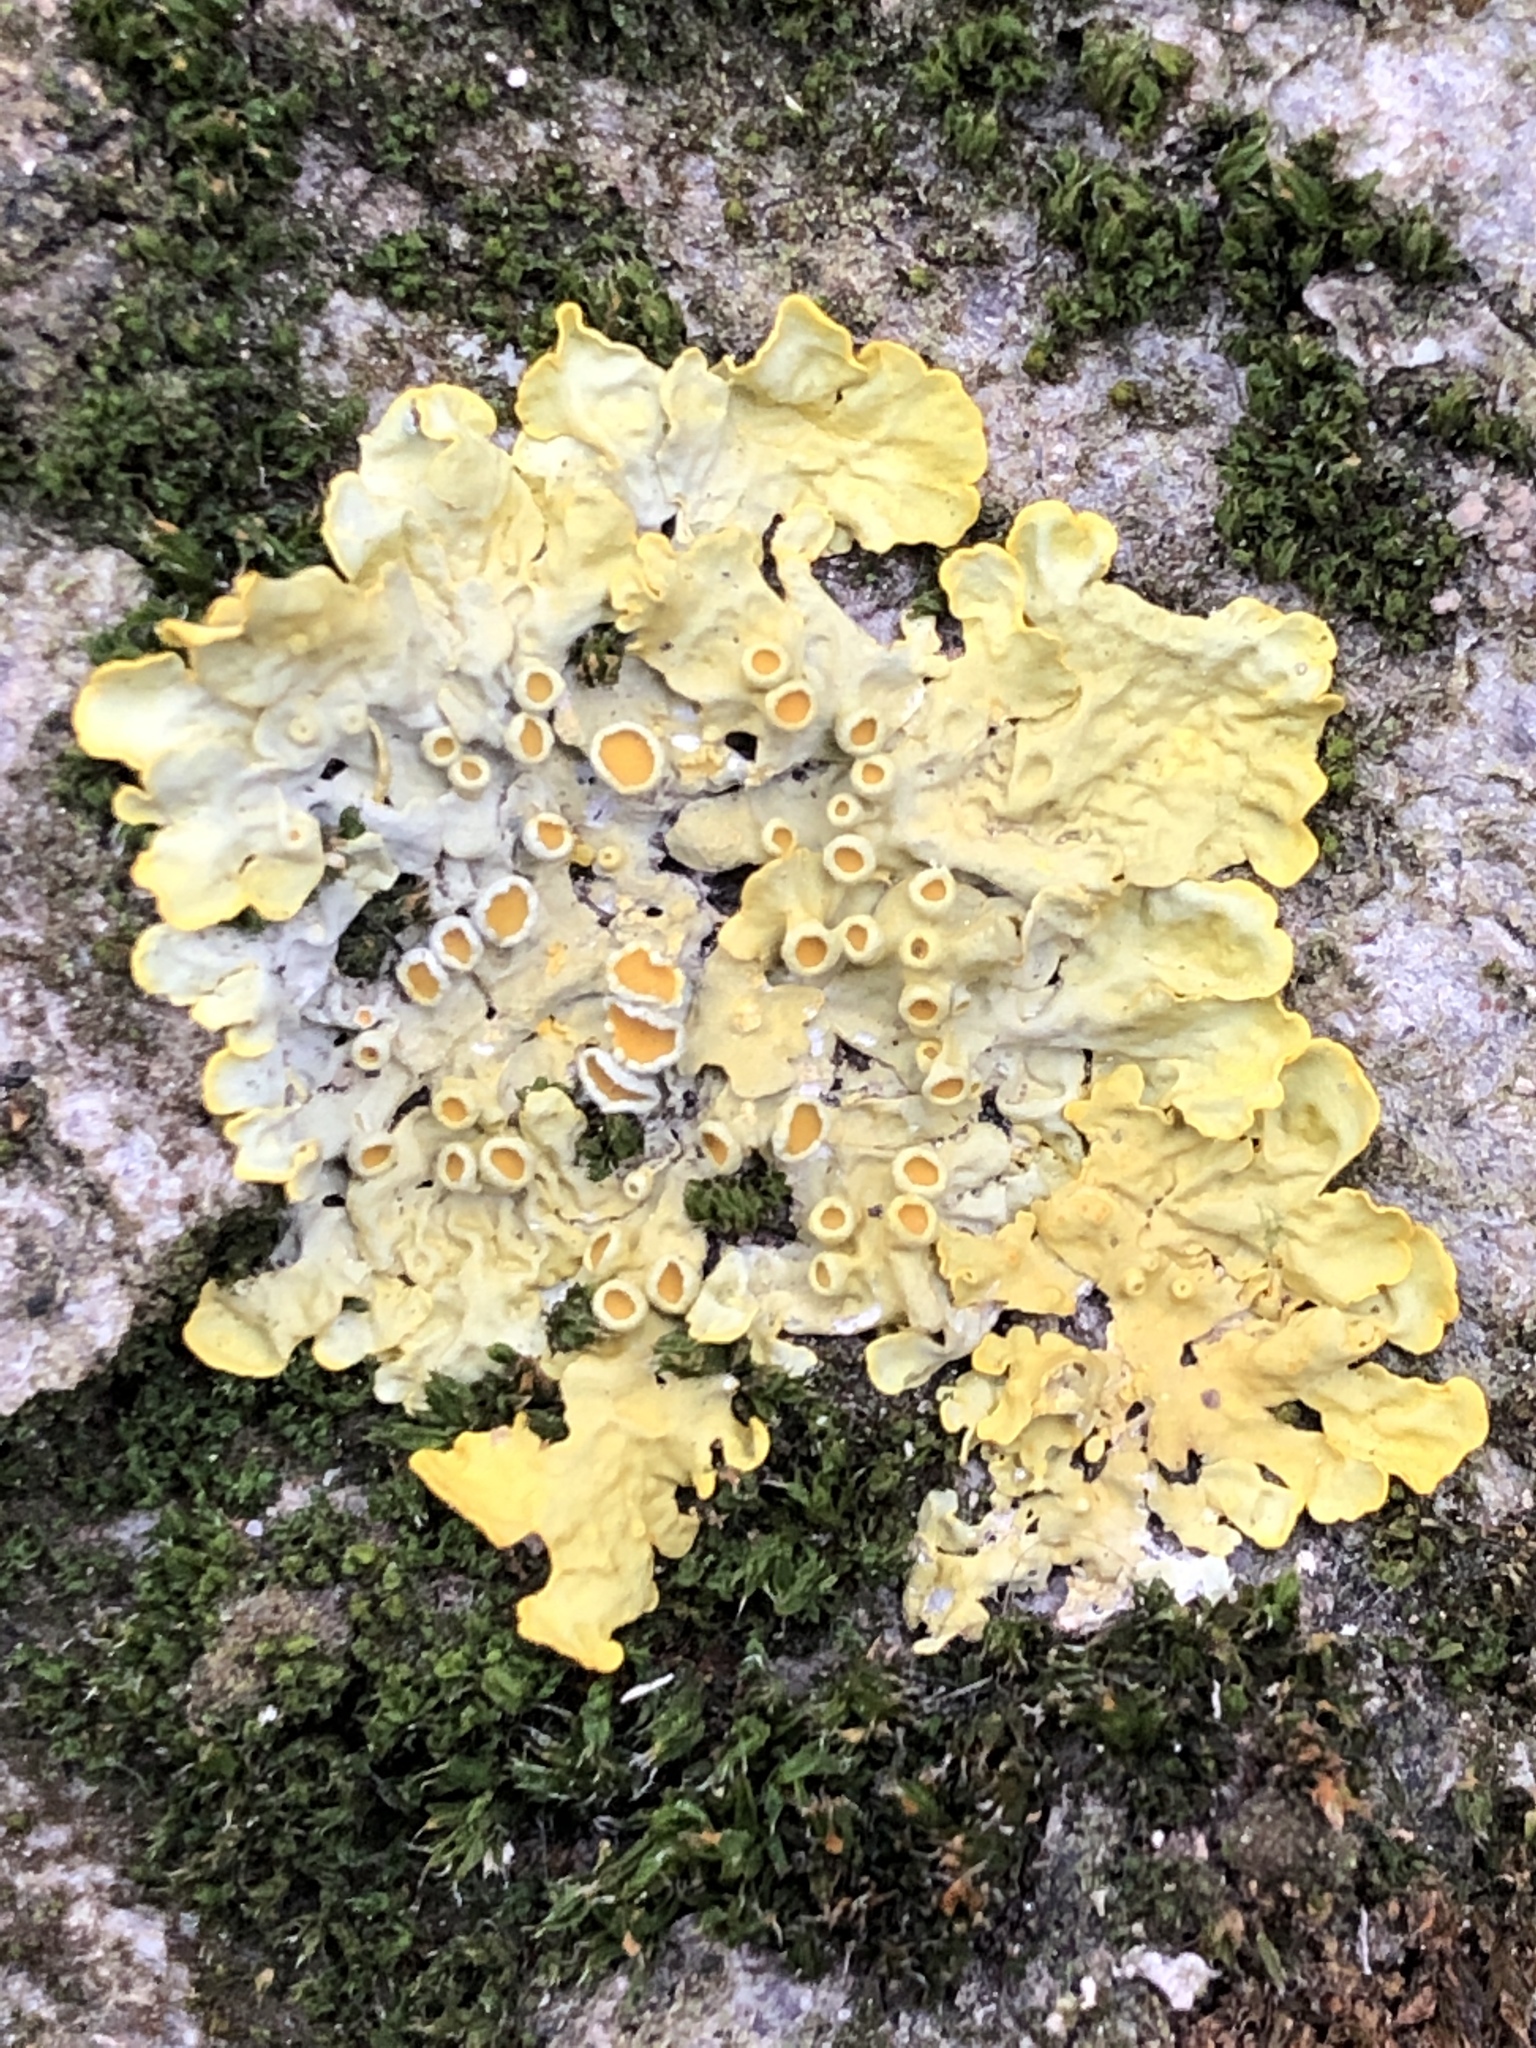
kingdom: Fungi
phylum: Ascomycota
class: Lecanoromycetes
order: Teloschistales
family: Teloschistaceae
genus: Xanthoria
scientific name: Xanthoria parietina
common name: Common orange lichen
